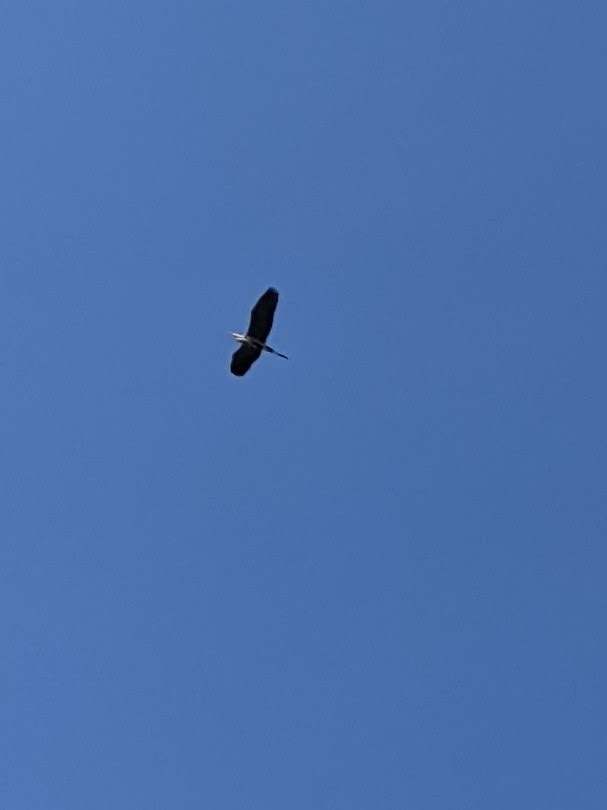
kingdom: Animalia
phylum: Chordata
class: Aves
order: Pelecaniformes
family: Ardeidae
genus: Ardea
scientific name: Ardea herodias
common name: Great blue heron
